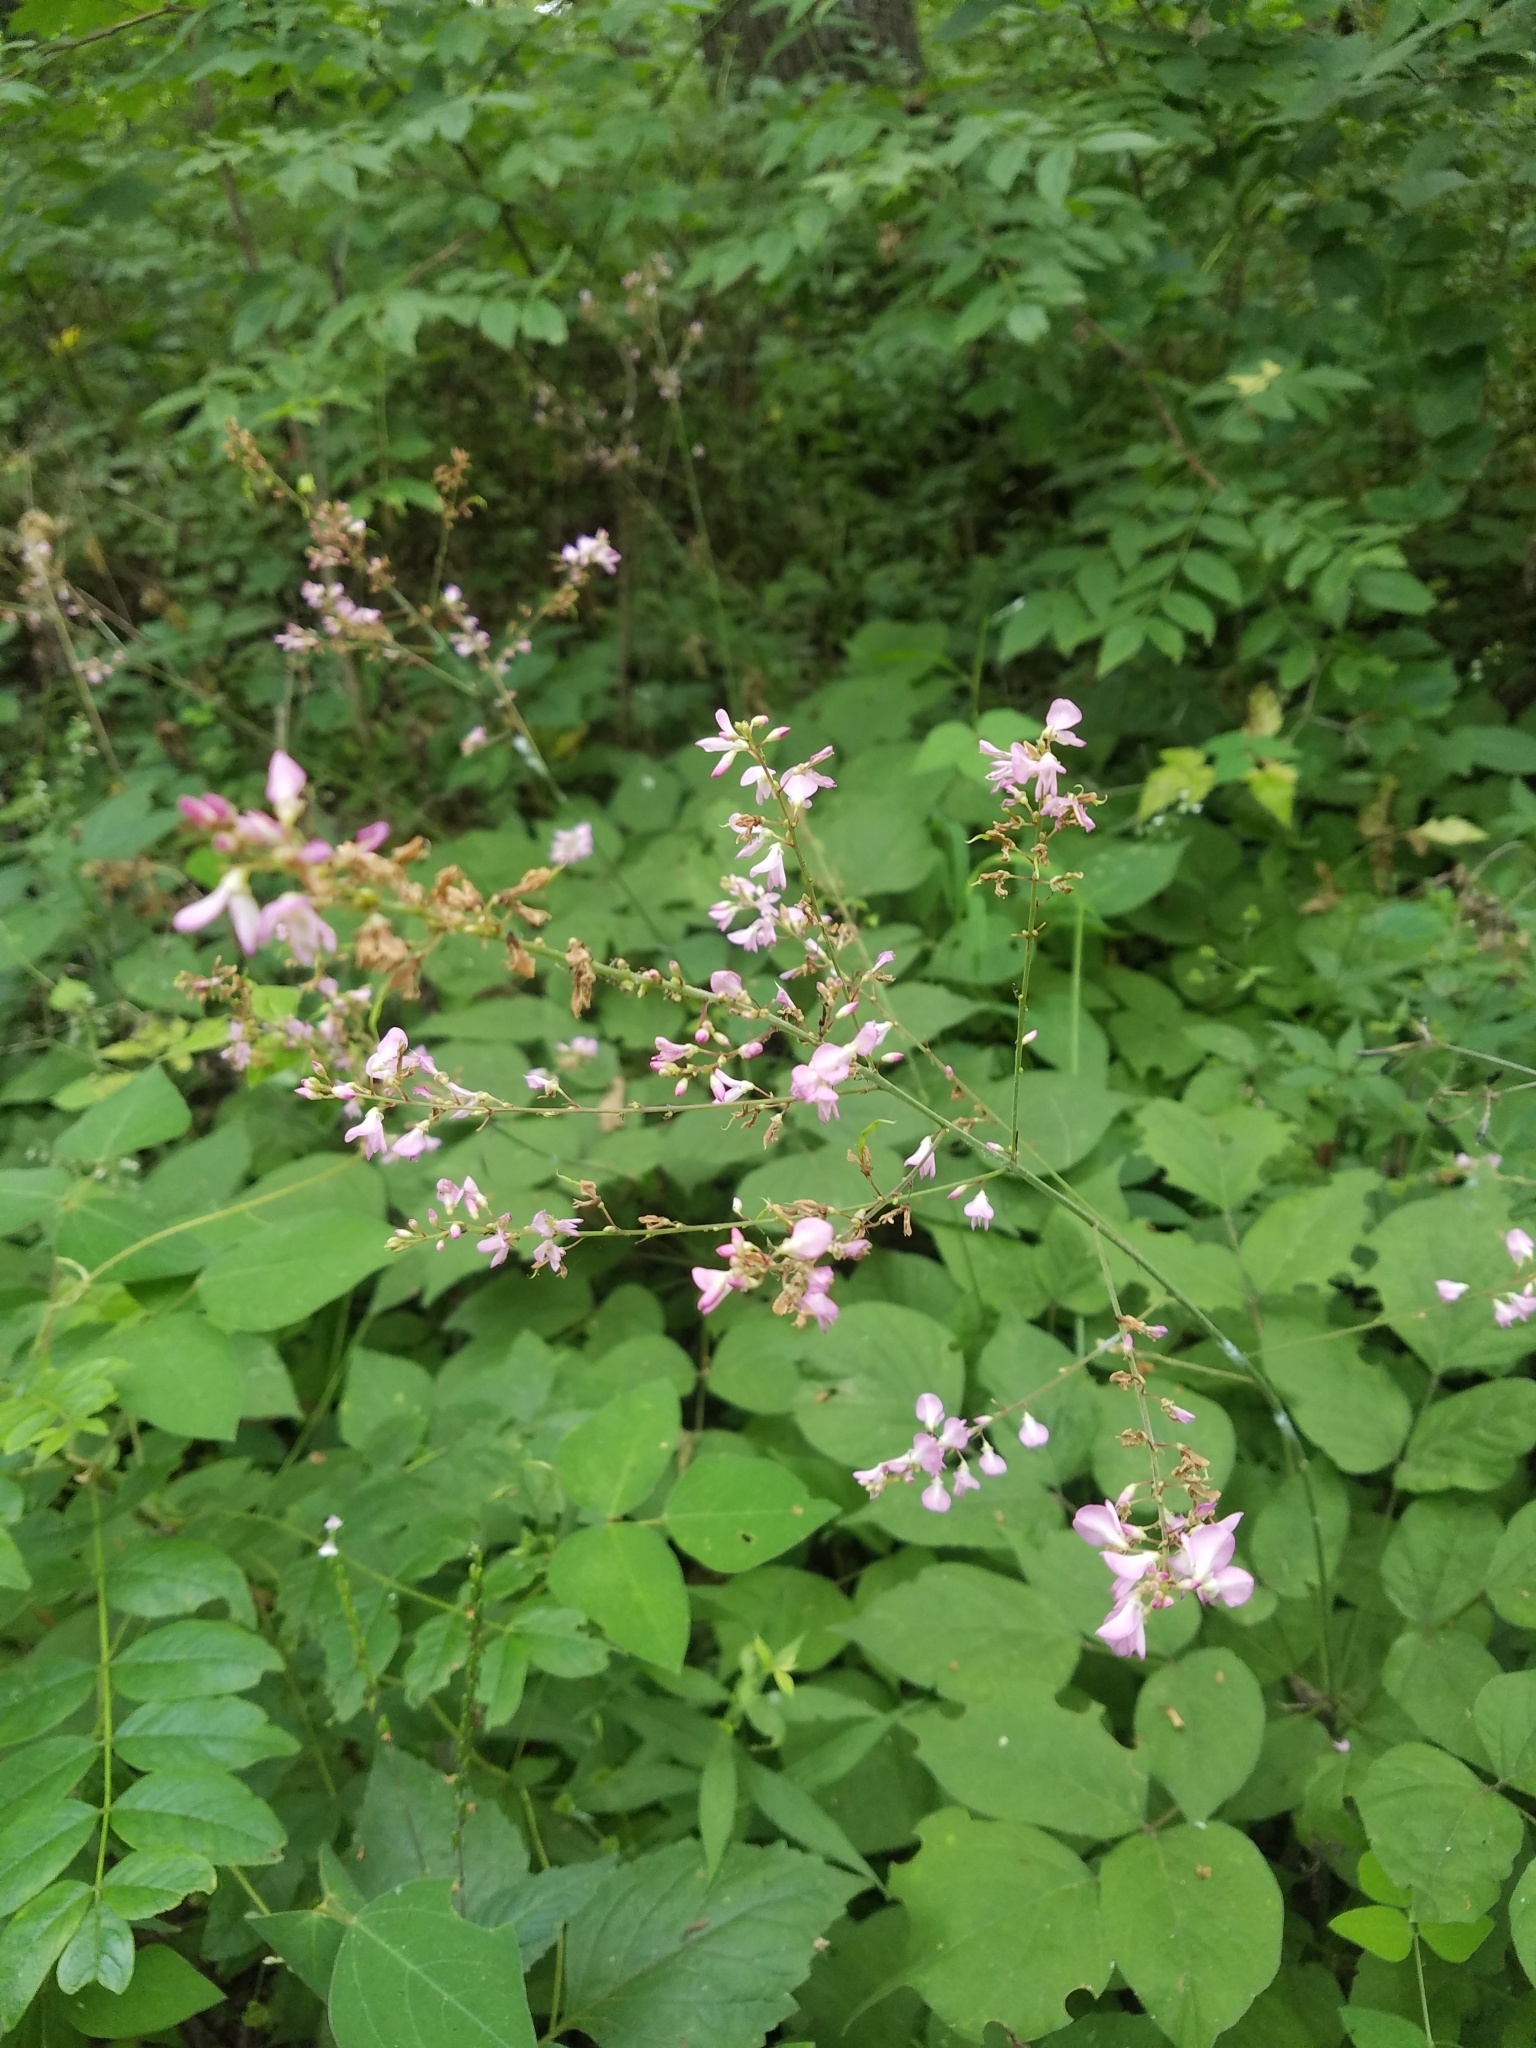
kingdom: Plantae
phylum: Tracheophyta
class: Magnoliopsida
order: Fabales
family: Fabaceae
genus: Hylodesmum
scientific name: Hylodesmum glutinosum
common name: Clustered-leaved tick-trefoil
